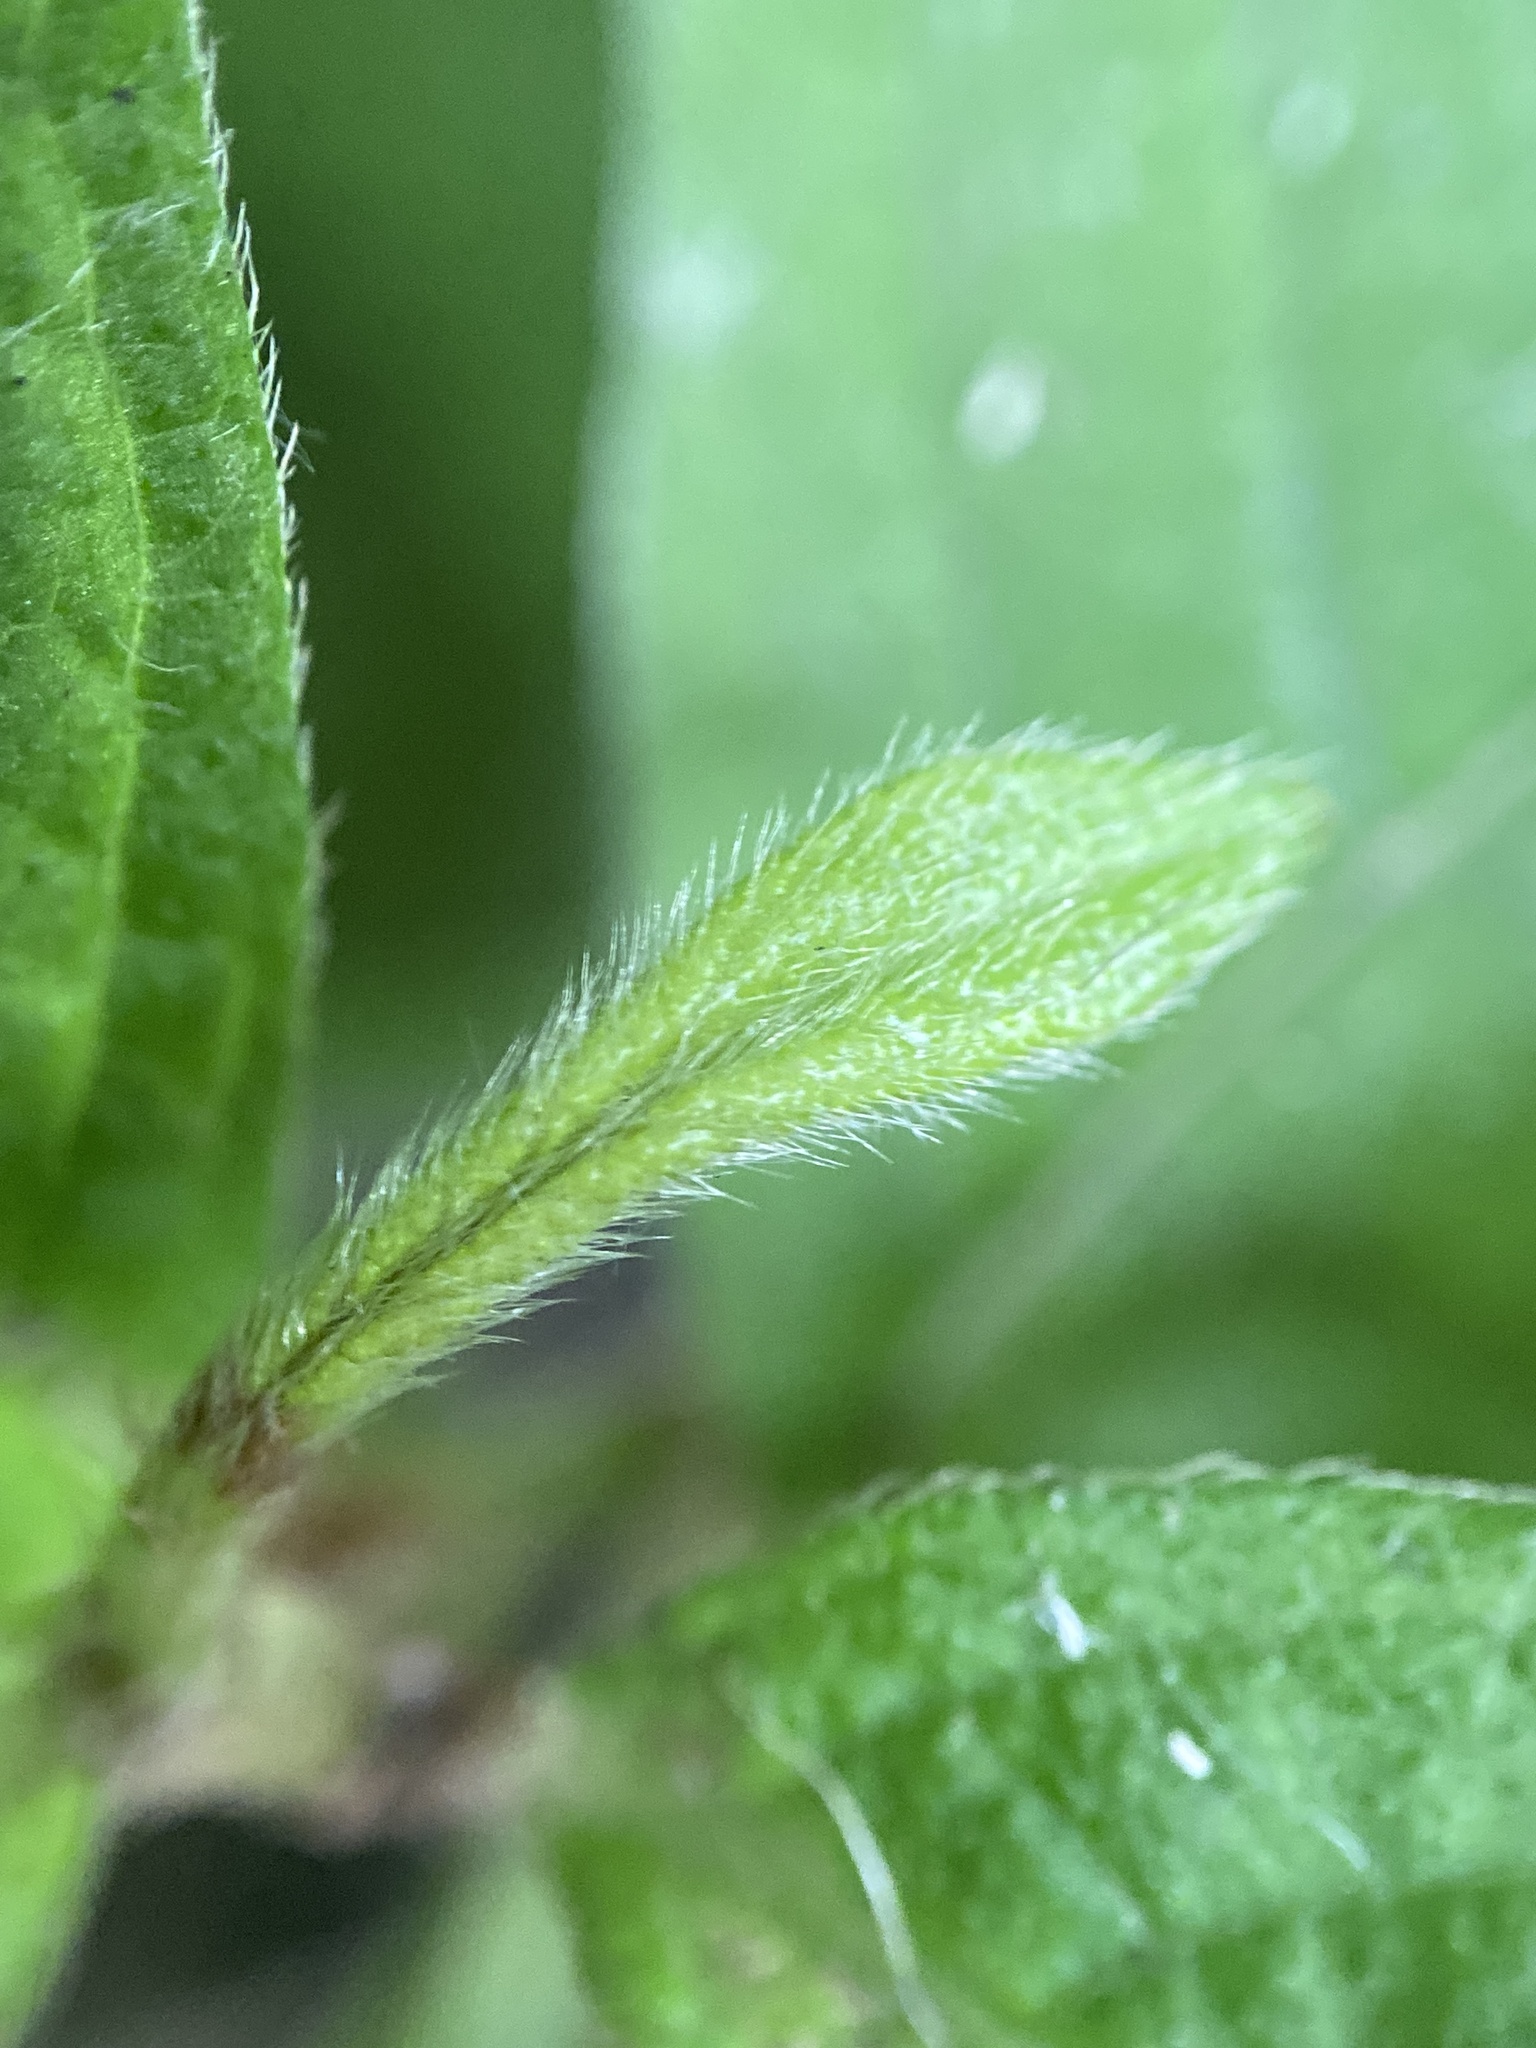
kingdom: Plantae
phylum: Tracheophyta
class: Magnoliopsida
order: Caryophyllales
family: Polygonaceae
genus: Persicaria
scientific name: Persicaria filiformis
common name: Asian jumpseed
